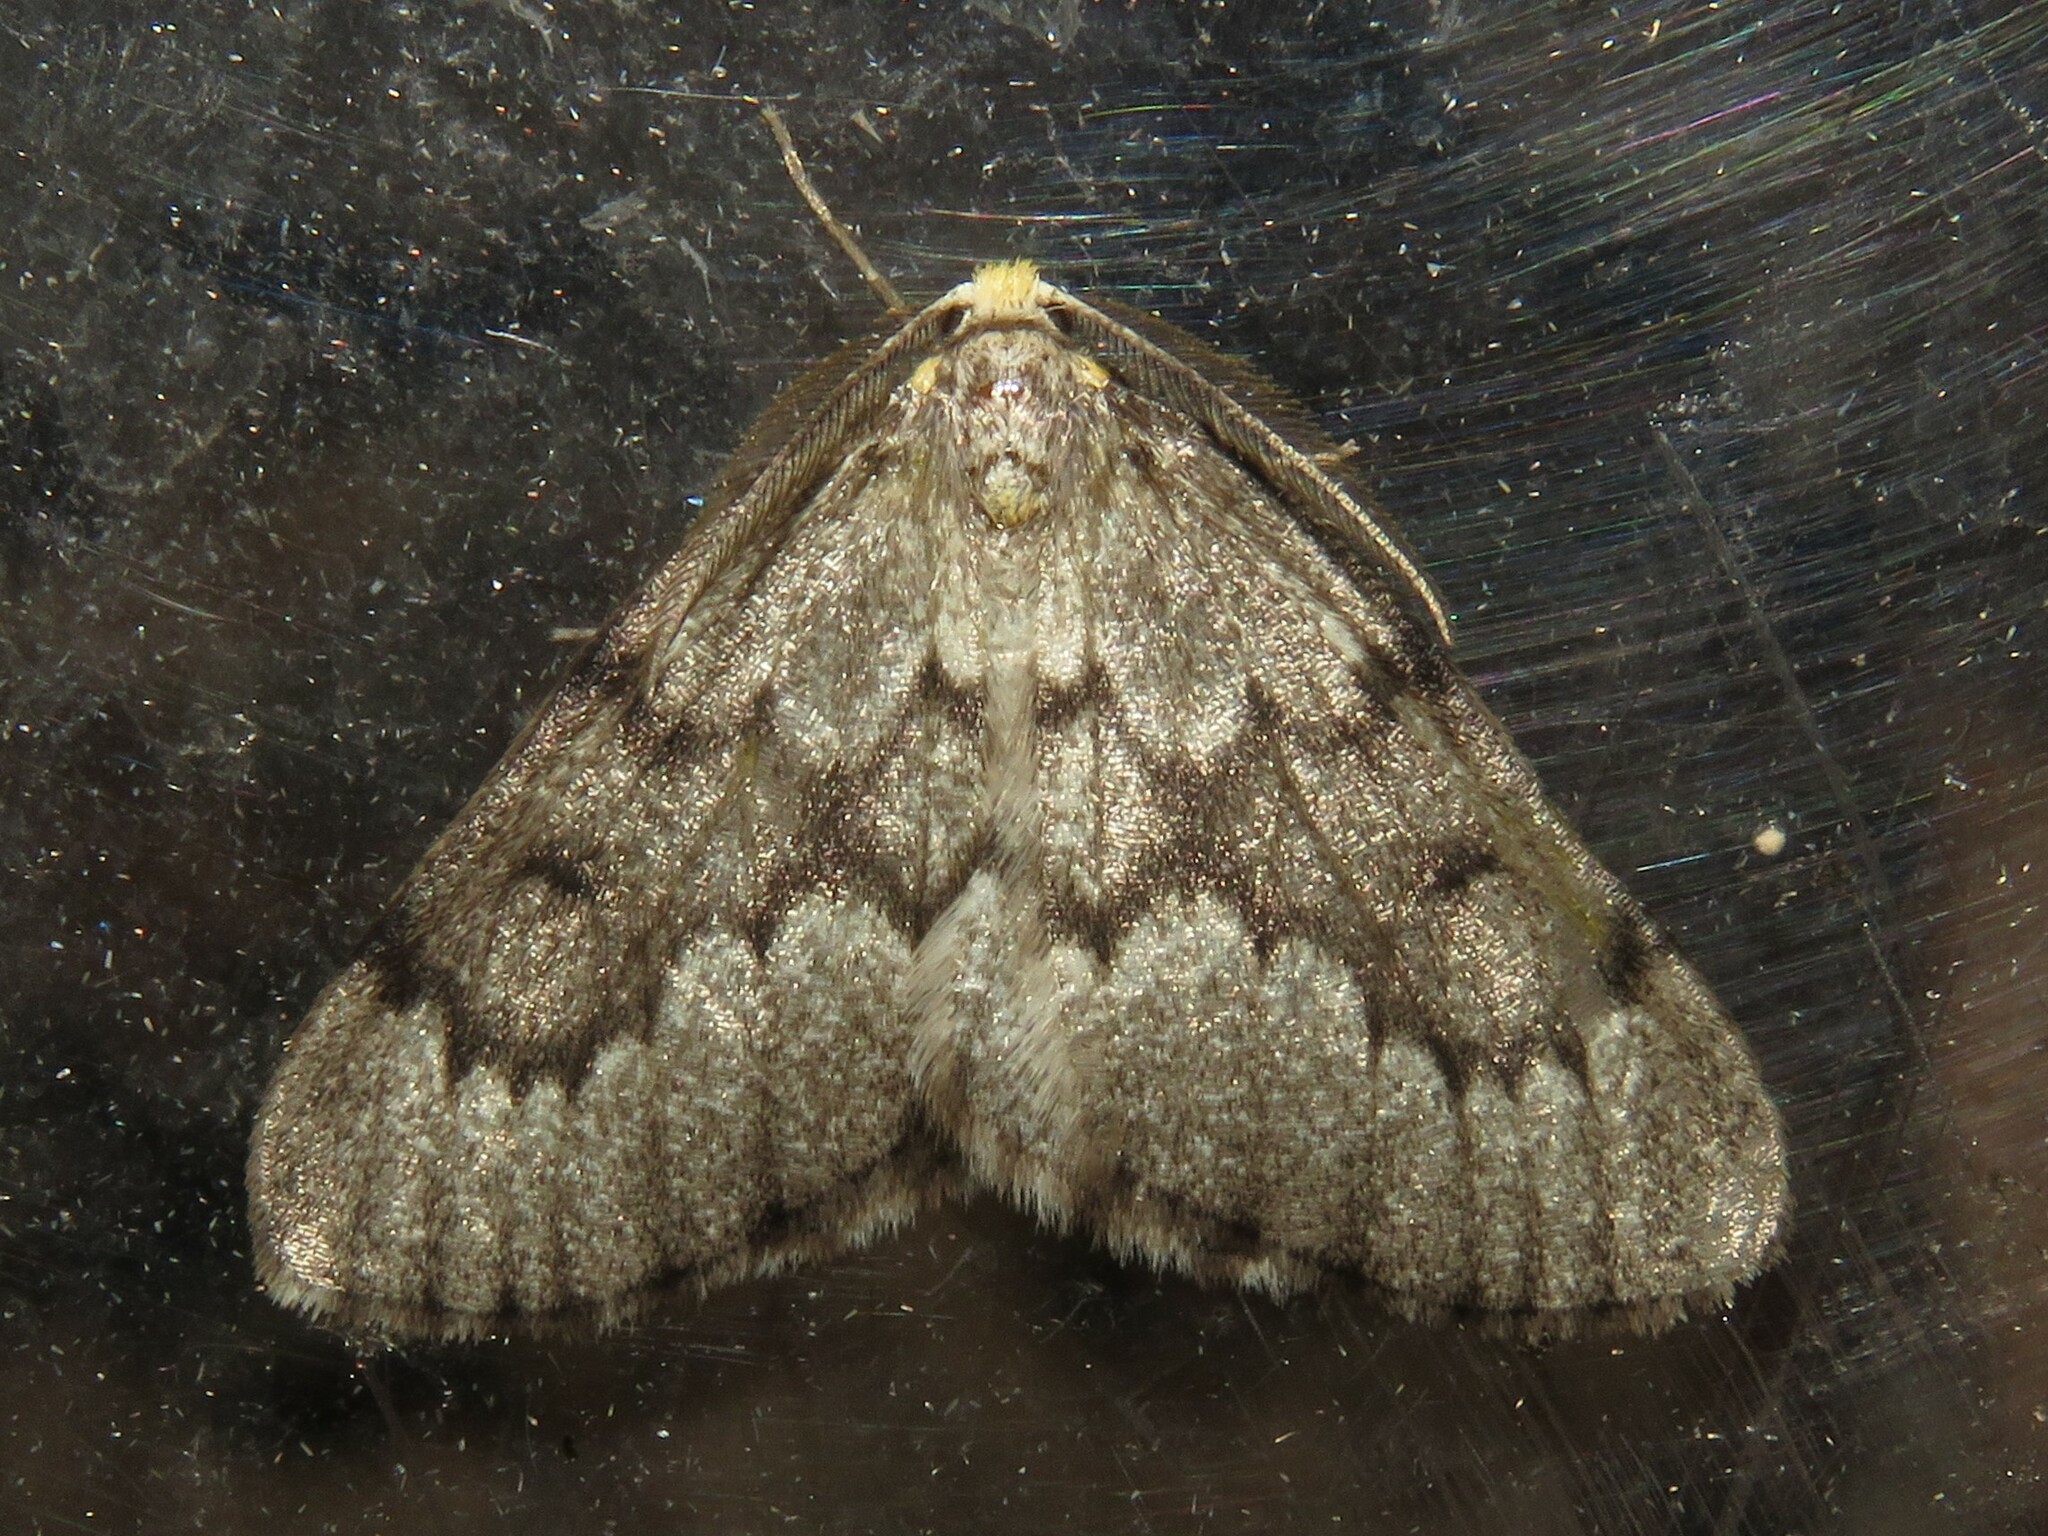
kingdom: Animalia
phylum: Arthropoda
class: Insecta
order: Lepidoptera
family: Geometridae
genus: Nepytia
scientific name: Nepytia canosaria
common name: False hemlock looper
